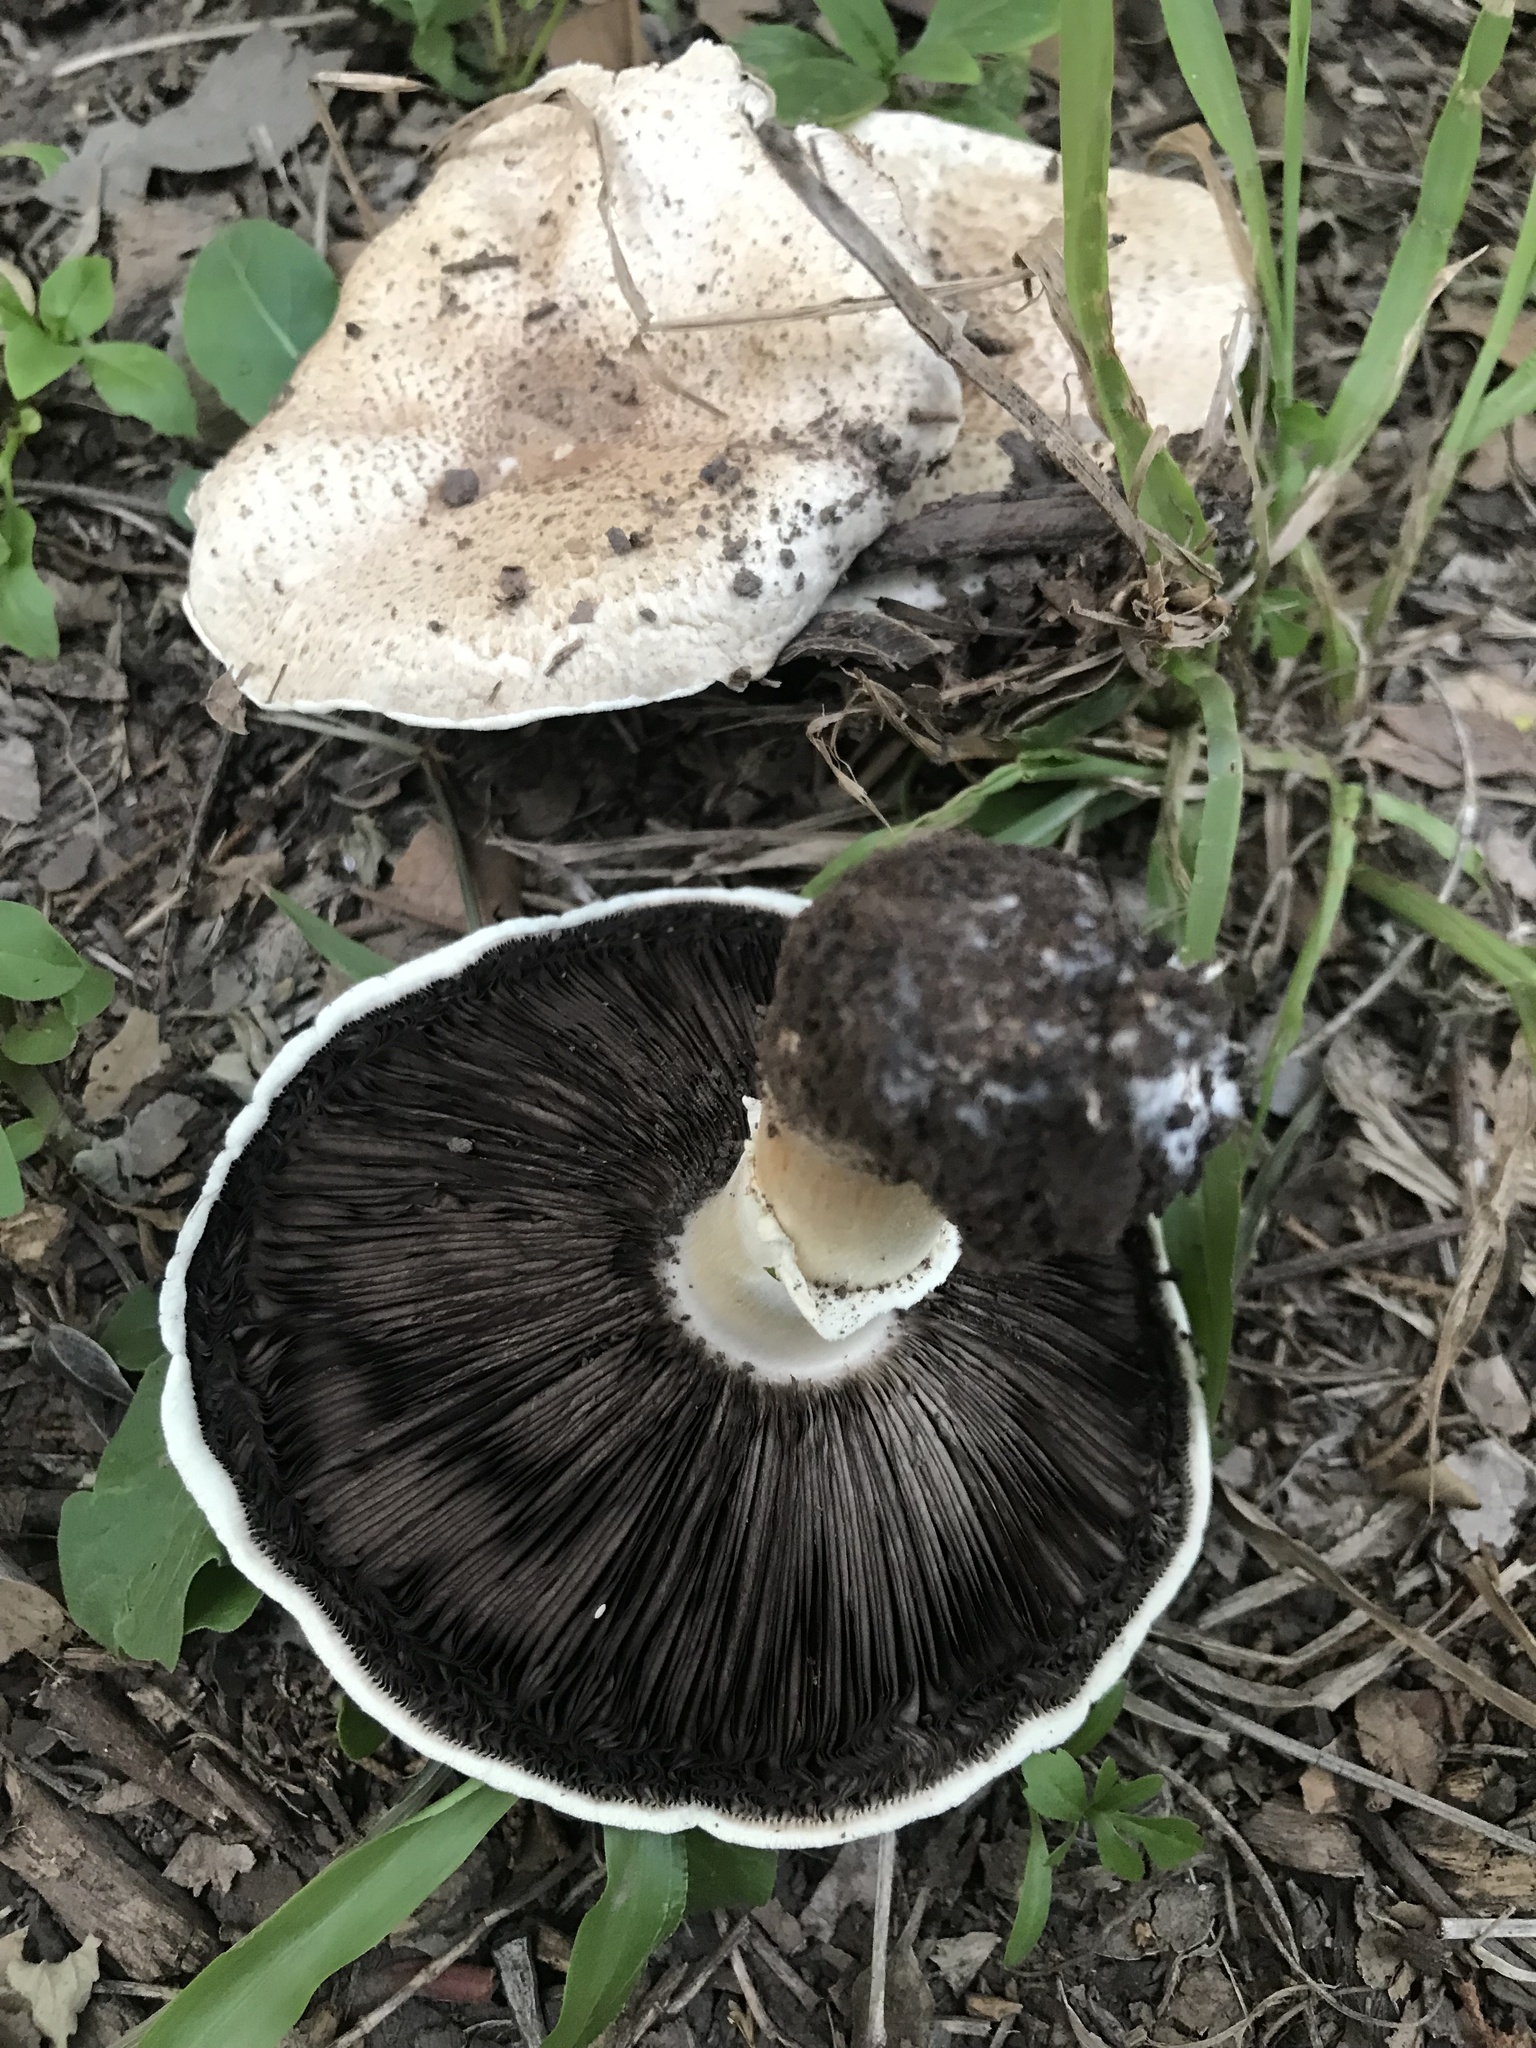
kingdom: Fungi
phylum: Basidiomycota
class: Agaricomycetes
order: Agaricales
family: Agaricaceae
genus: Agaricus
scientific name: Agaricus augustus
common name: Prince
